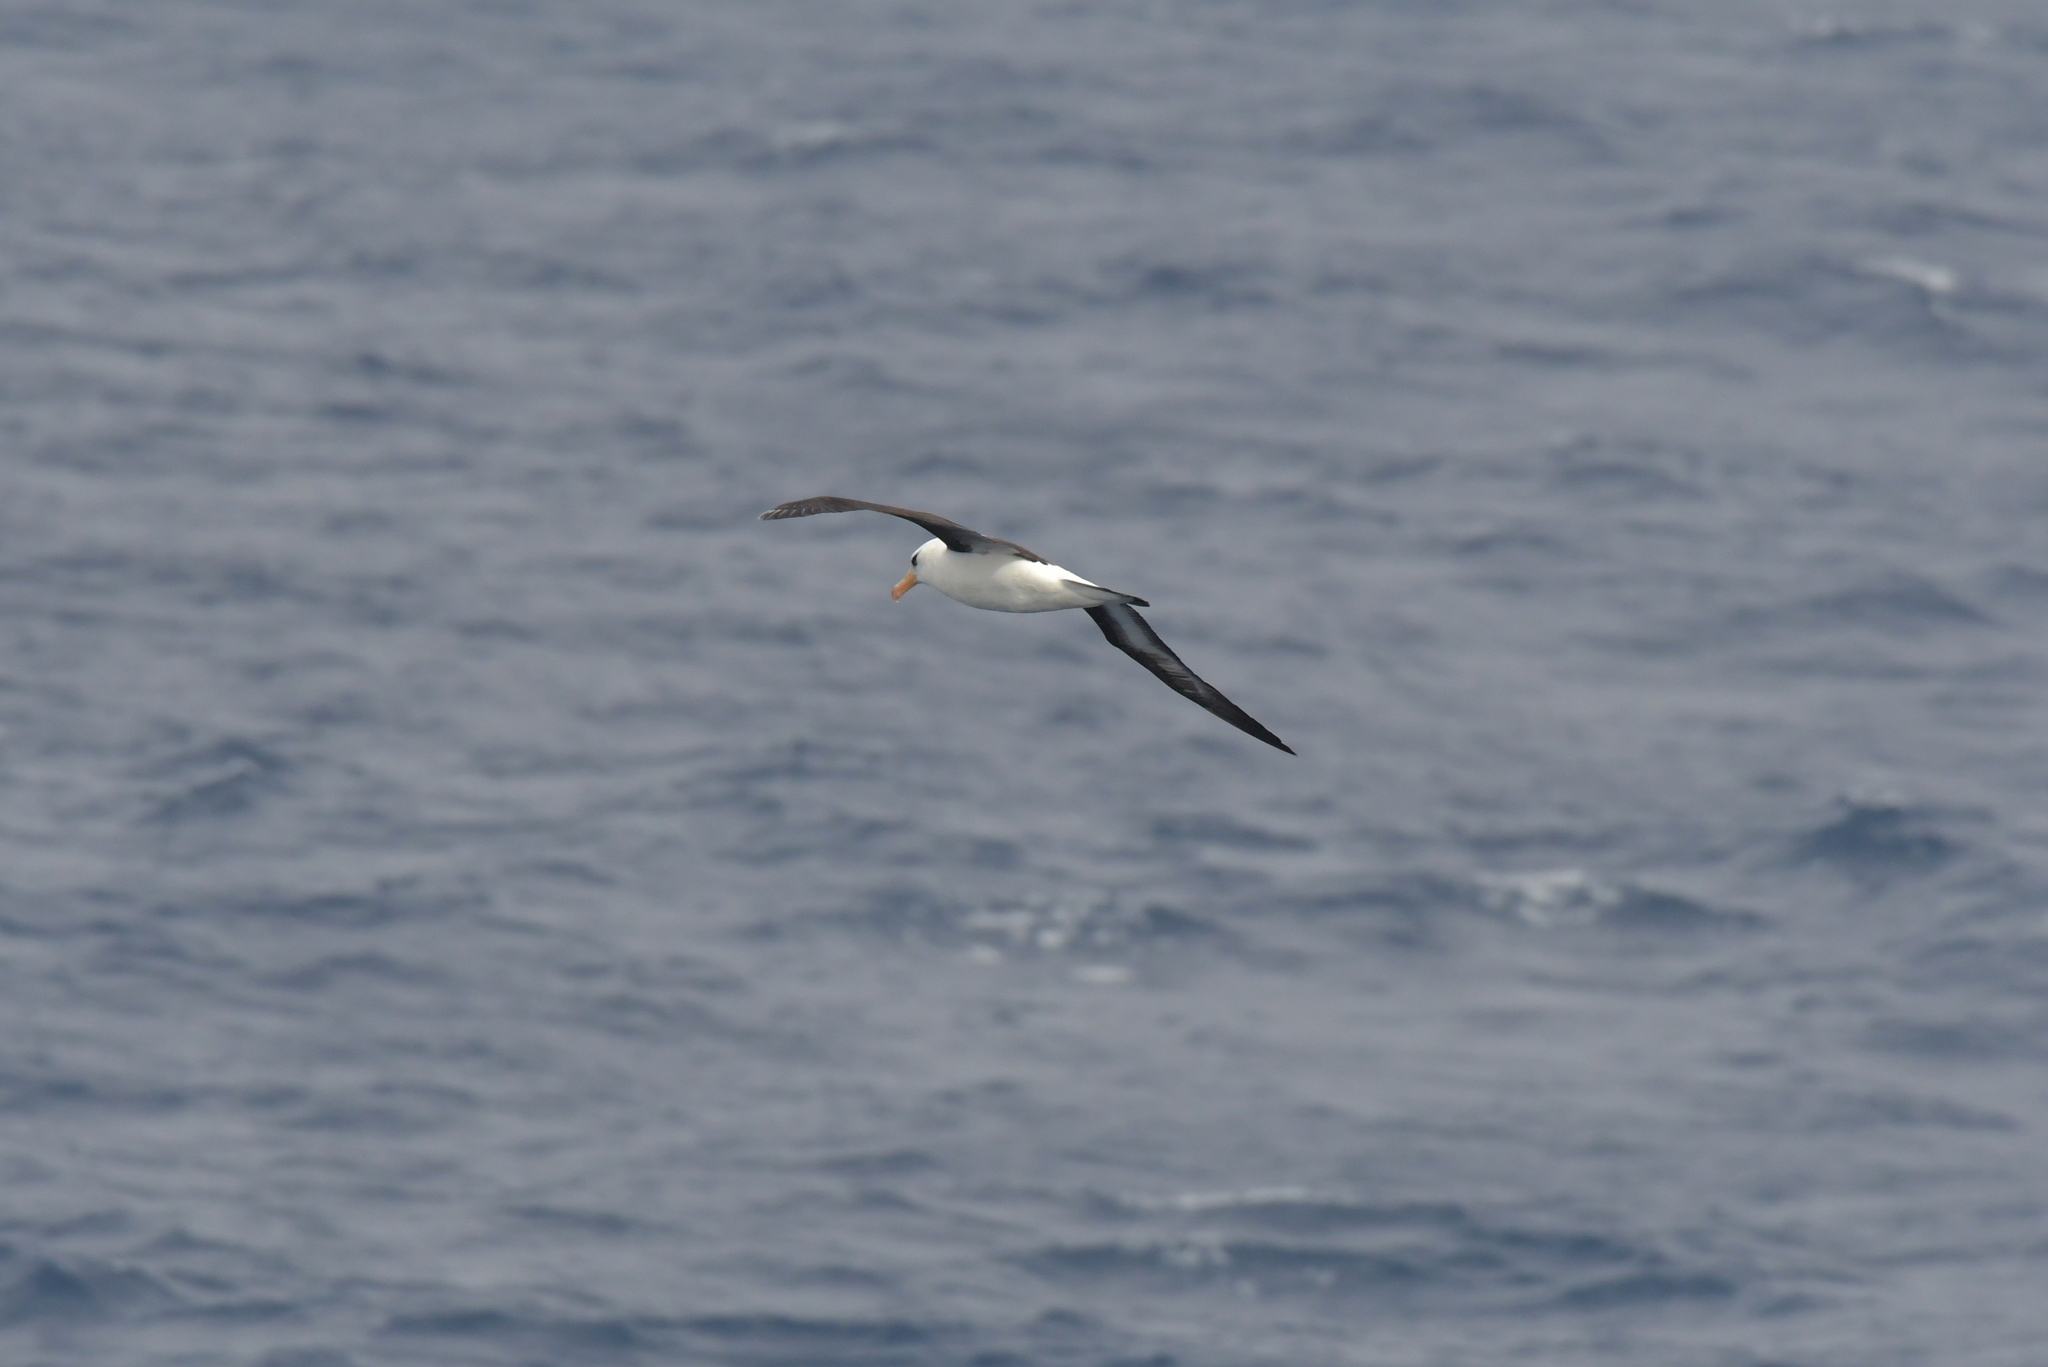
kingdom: Animalia
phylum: Chordata
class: Aves
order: Procellariiformes
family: Diomedeidae
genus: Thalassarche
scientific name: Thalassarche impavida
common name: Campbell albatross
